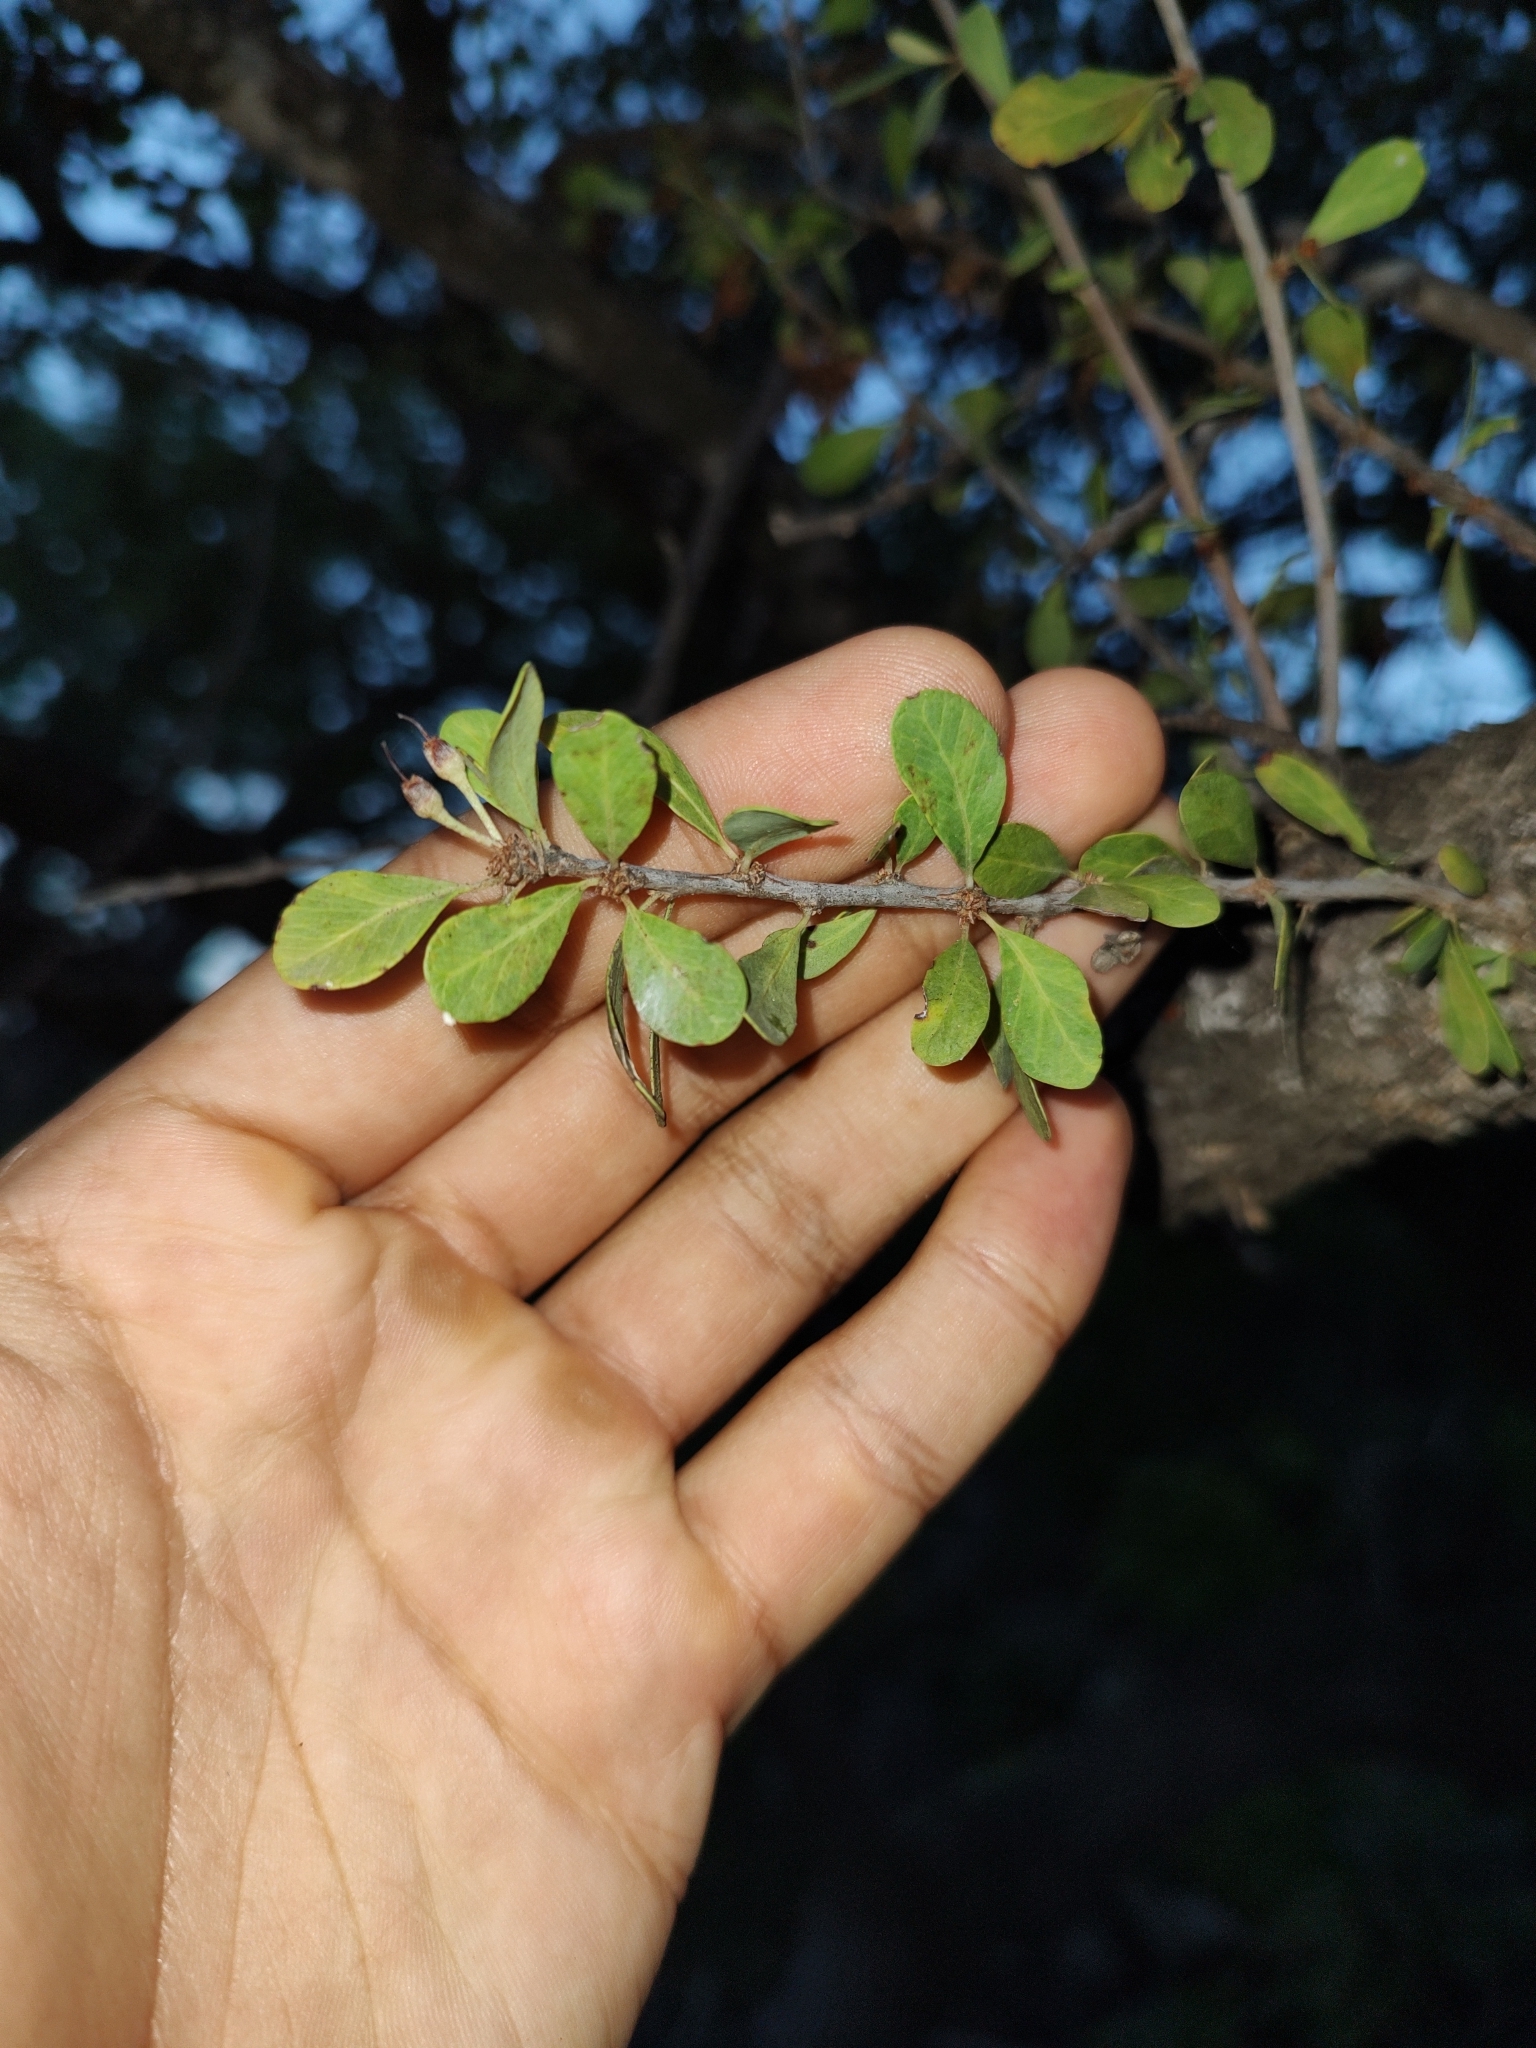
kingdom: Plantae
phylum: Tracheophyta
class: Magnoliopsida
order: Ericales
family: Sapotaceae
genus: Sideroxylon
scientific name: Sideroxylon occidentale
